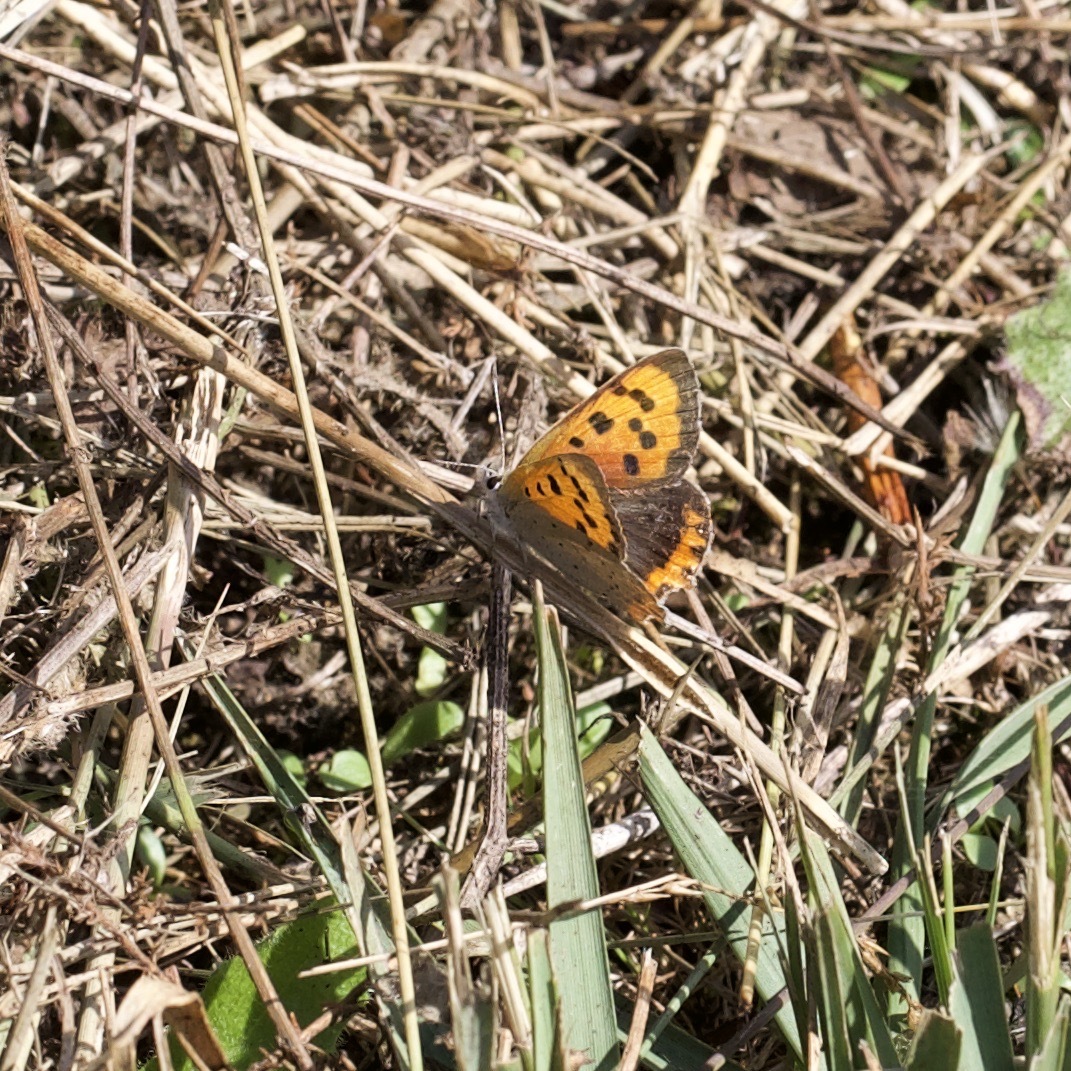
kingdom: Animalia
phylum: Arthropoda
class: Insecta
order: Lepidoptera
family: Lycaenidae
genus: Lycaena
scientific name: Lycaena phlaeas
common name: Small copper
